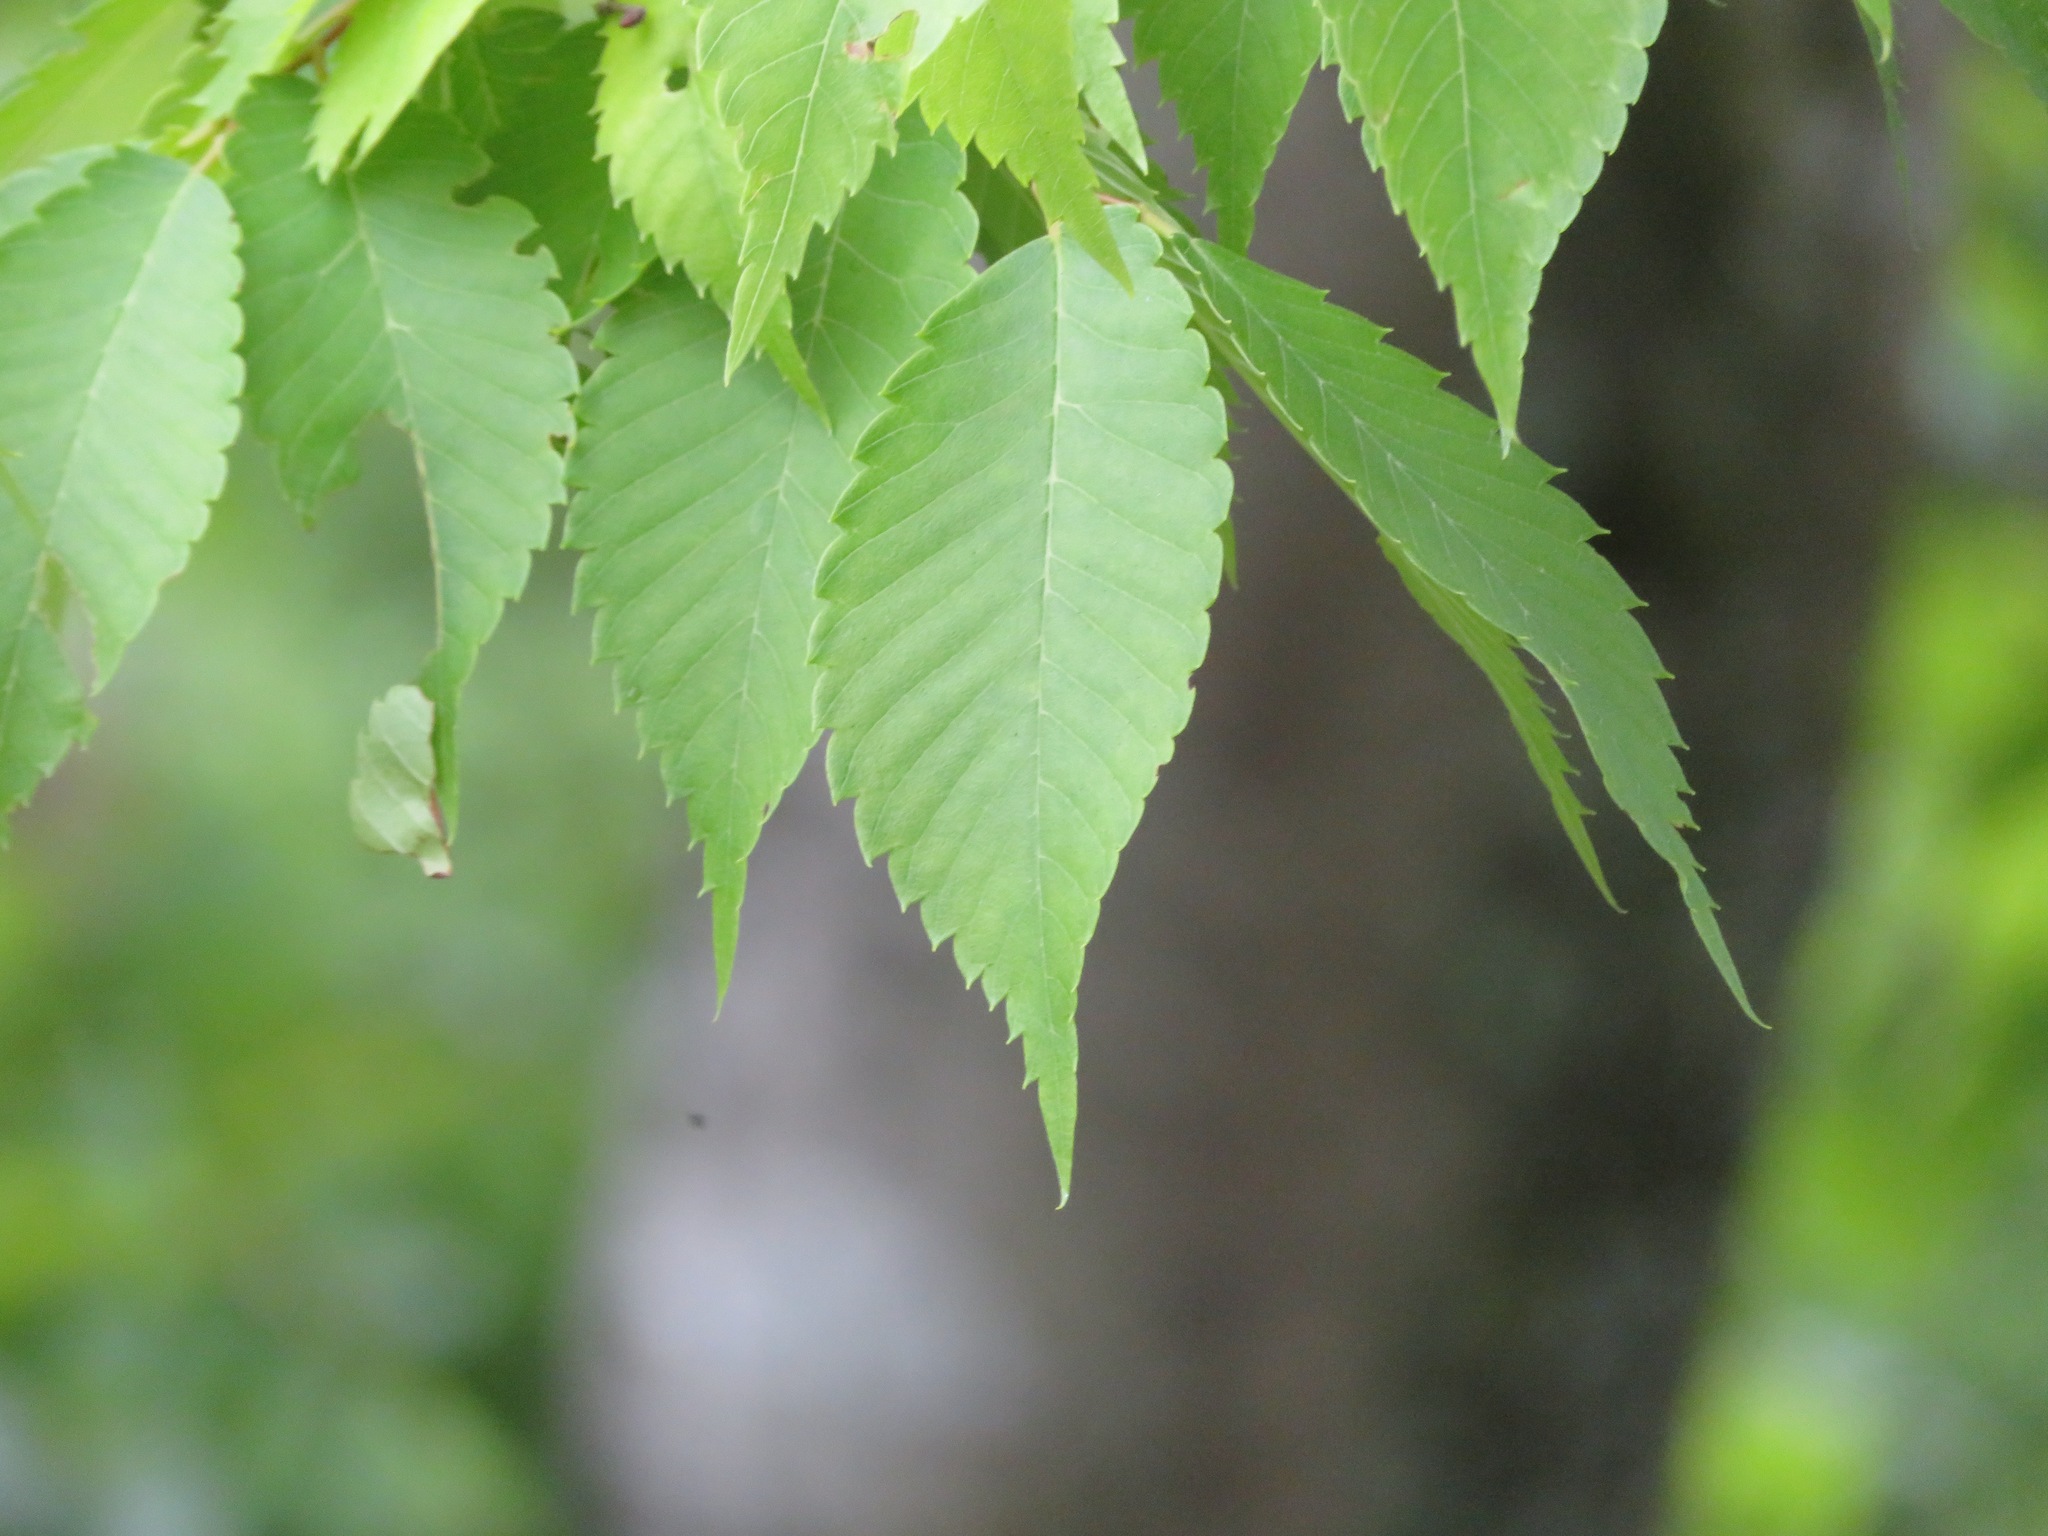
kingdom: Plantae
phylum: Tracheophyta
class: Magnoliopsida
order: Rosales
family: Ulmaceae
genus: Zelkova
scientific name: Zelkova serrata
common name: Japanese zelkova
